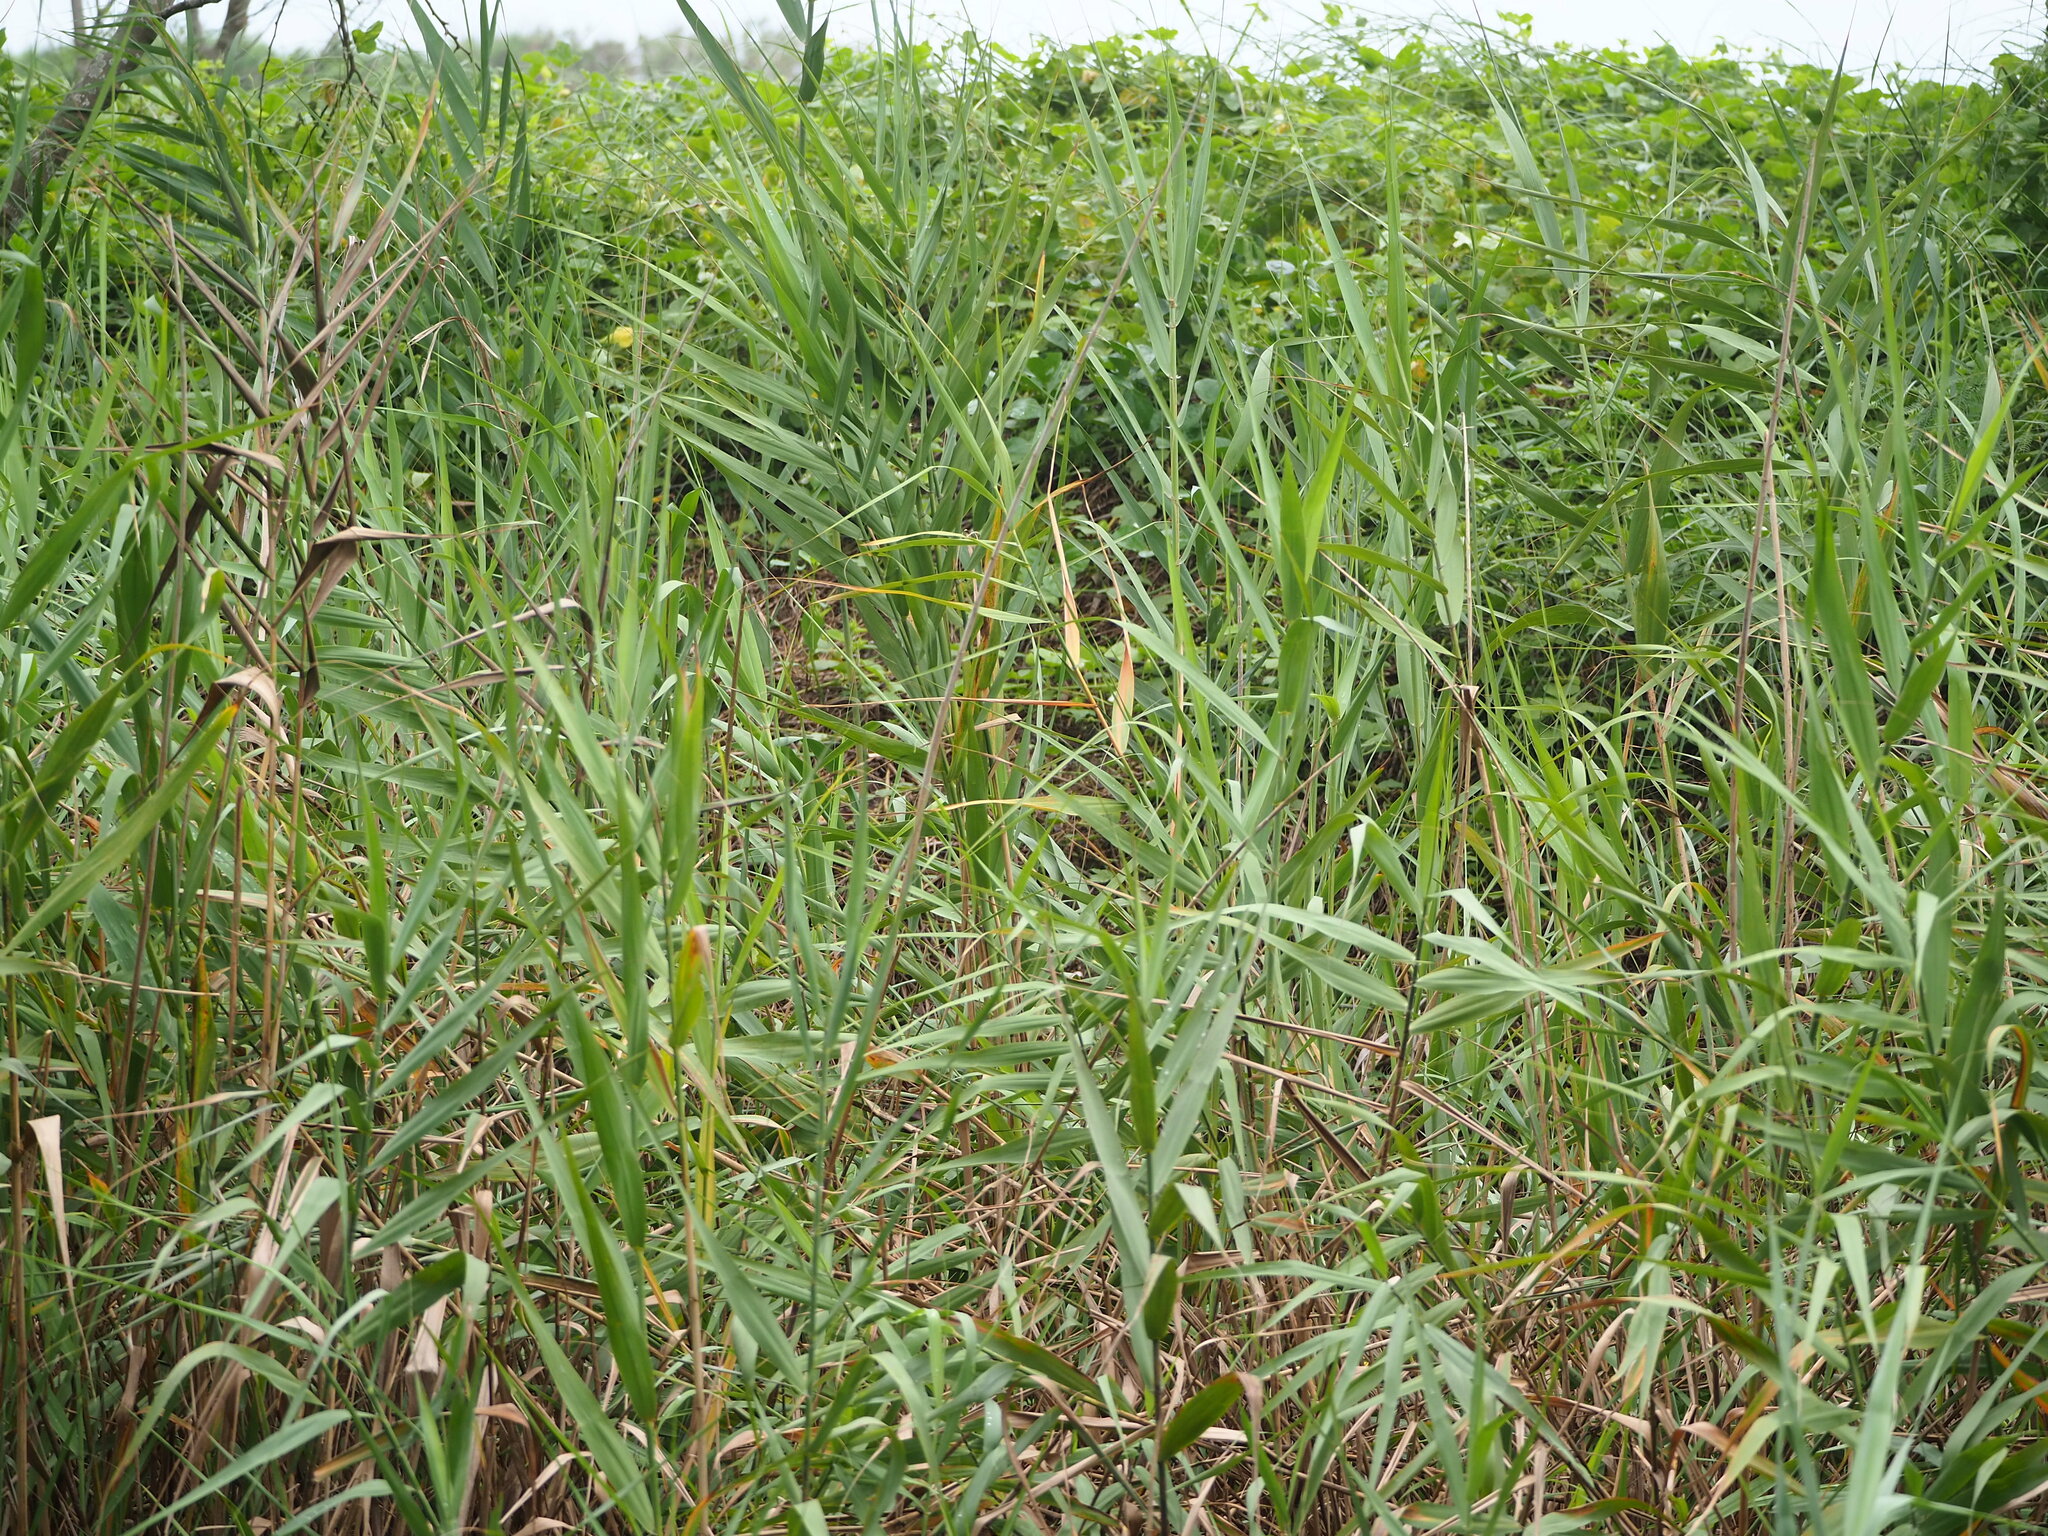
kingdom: Plantae
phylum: Tracheophyta
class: Liliopsida
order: Poales
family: Poaceae
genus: Phragmites
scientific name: Phragmites australis
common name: Common reed
